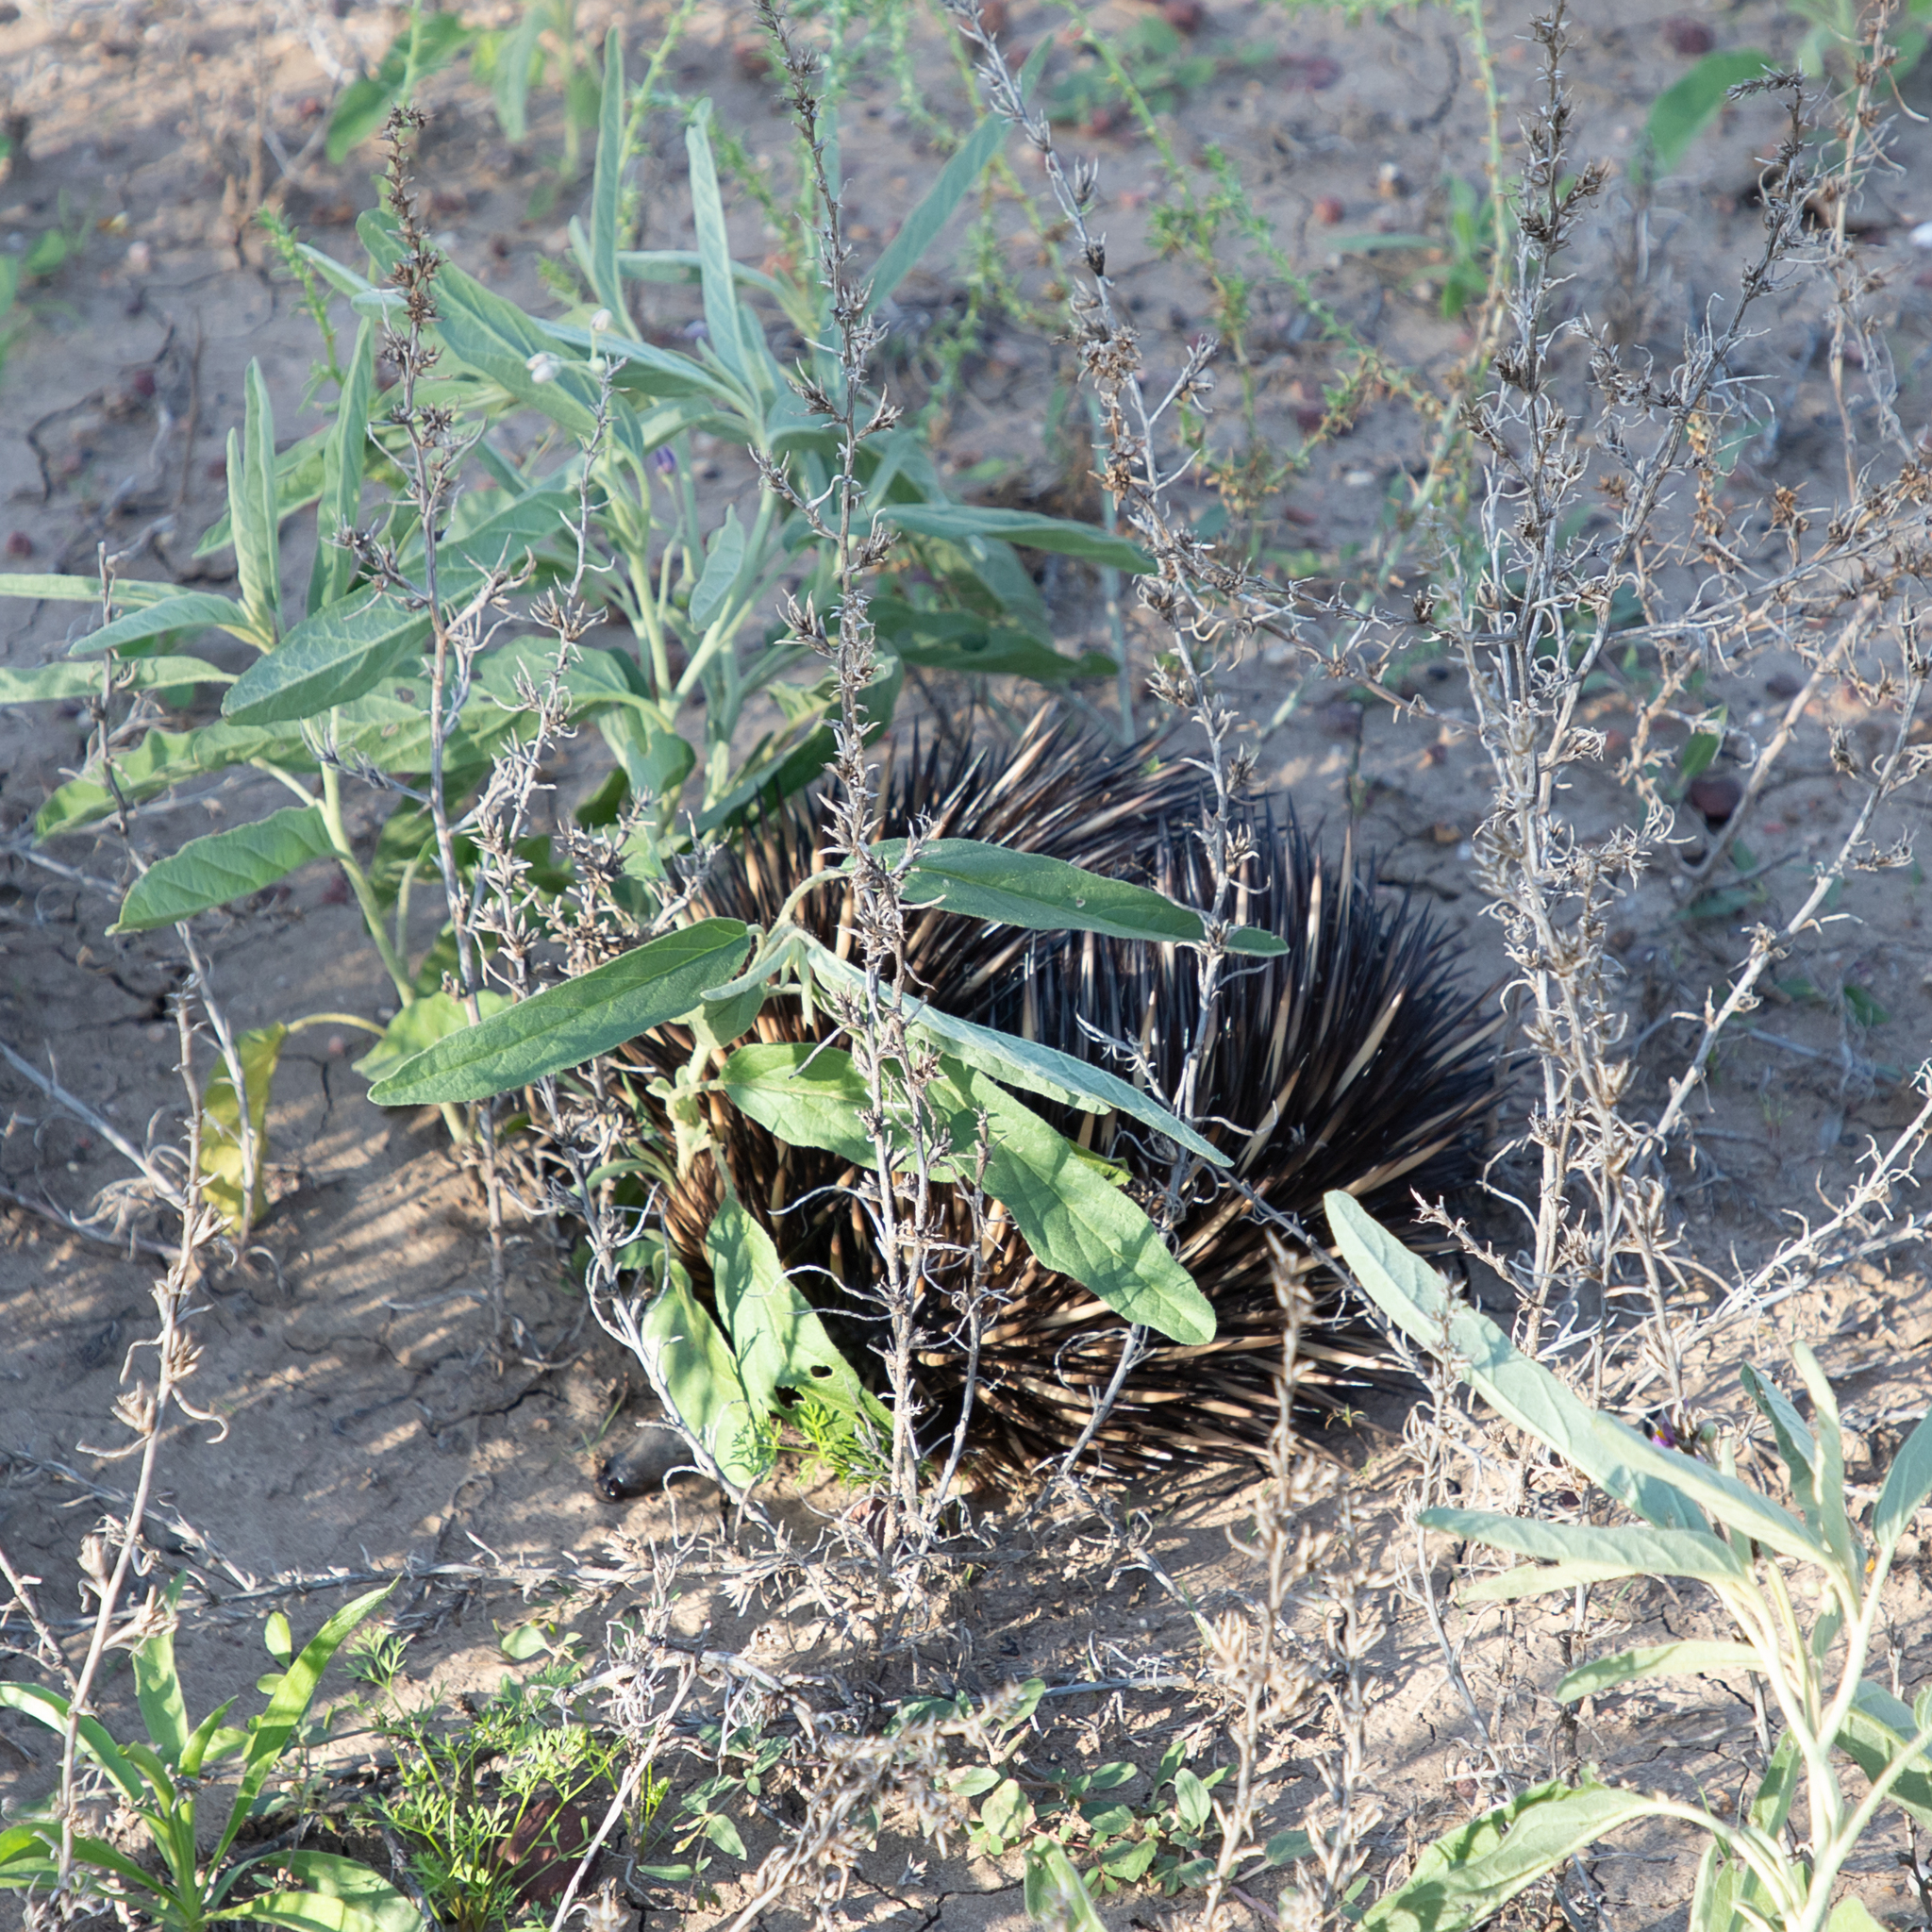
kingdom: Animalia
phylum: Chordata
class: Mammalia
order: Monotremata
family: Tachyglossidae
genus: Tachyglossus
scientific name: Tachyglossus aculeatus
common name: Short-beaked echidna
